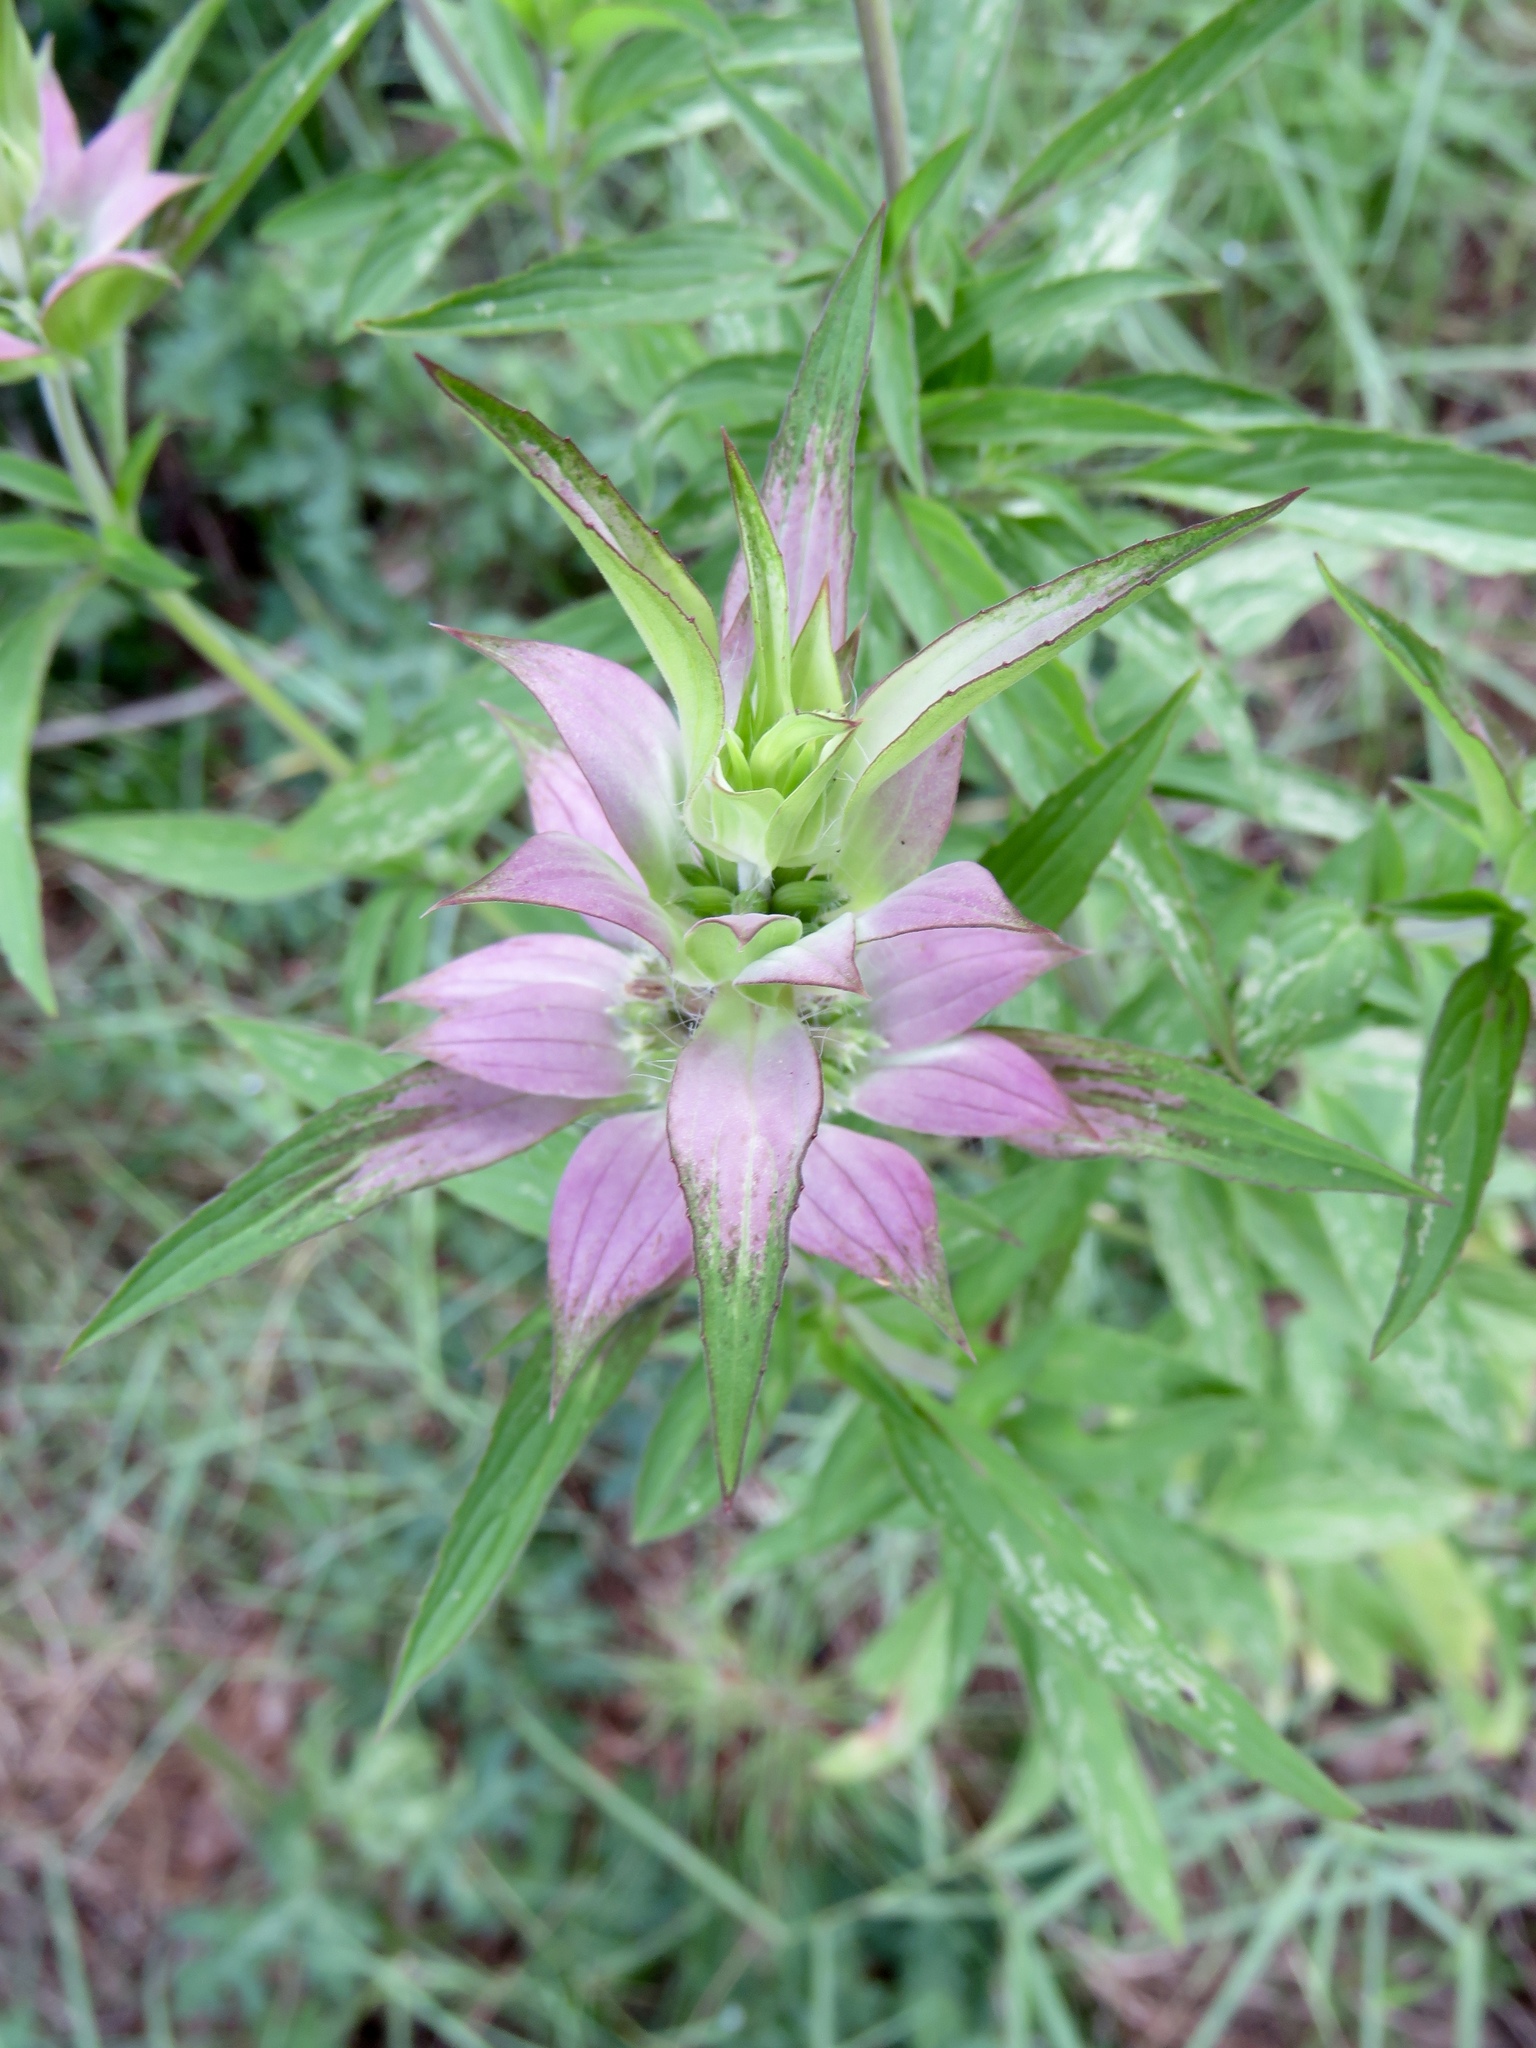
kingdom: Plantae
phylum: Tracheophyta
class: Magnoliopsida
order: Lamiales
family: Lamiaceae
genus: Monarda
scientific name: Monarda punctata
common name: Dotted monarda
